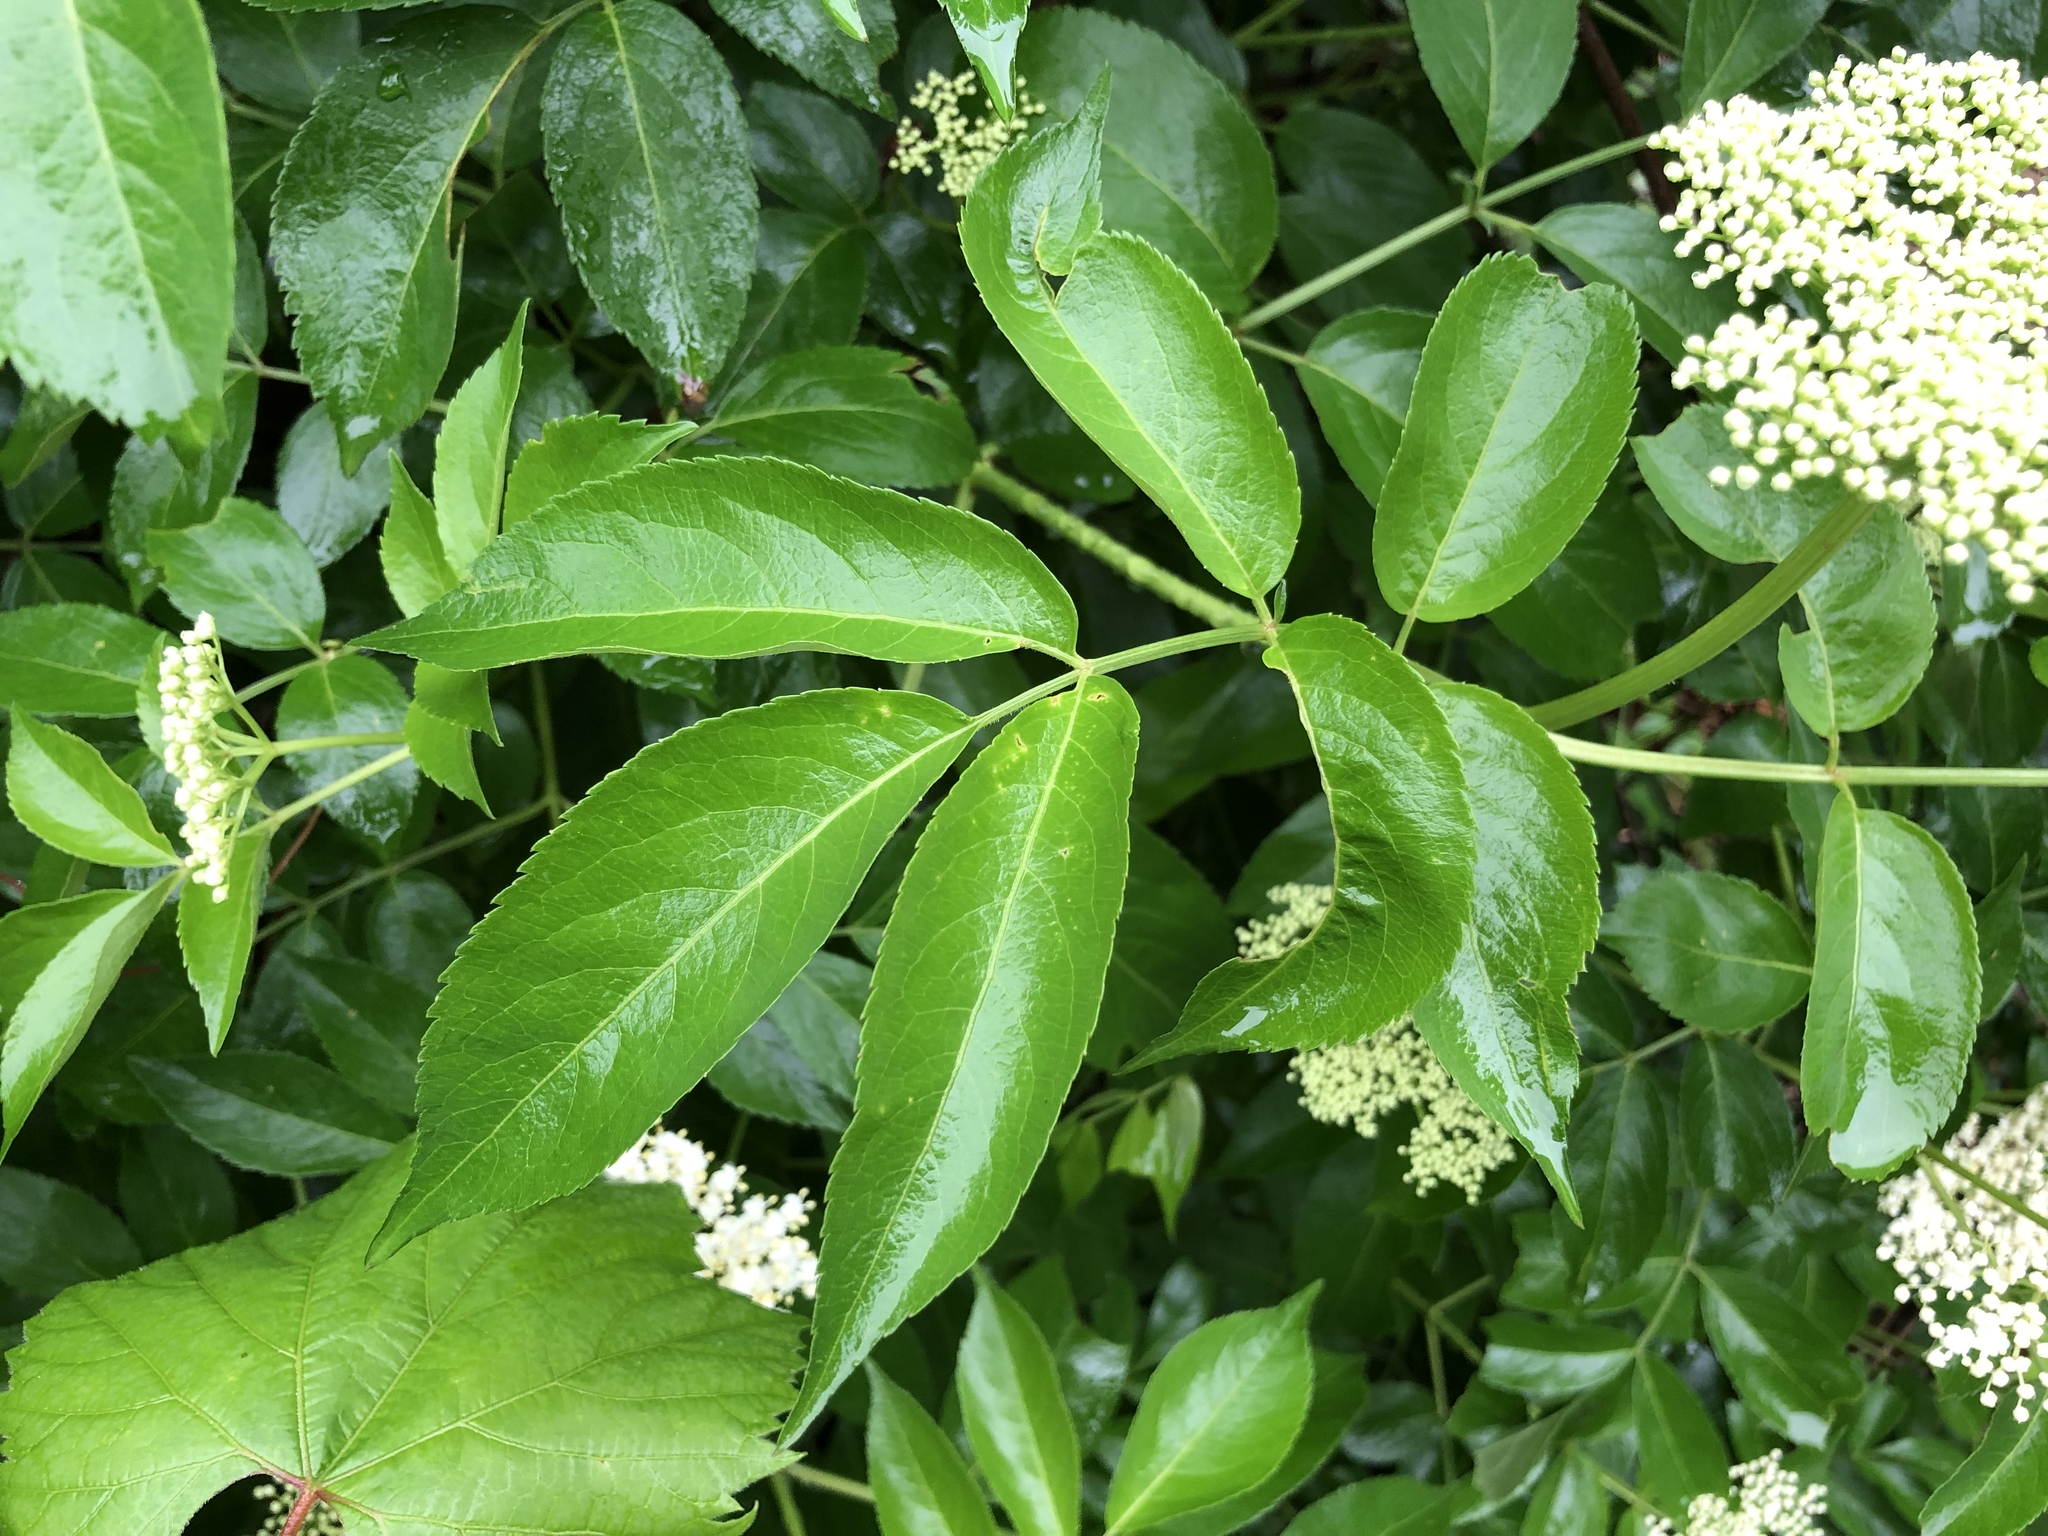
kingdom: Plantae
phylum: Tracheophyta
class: Magnoliopsida
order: Dipsacales
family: Viburnaceae
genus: Sambucus
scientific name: Sambucus canadensis
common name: American elder
